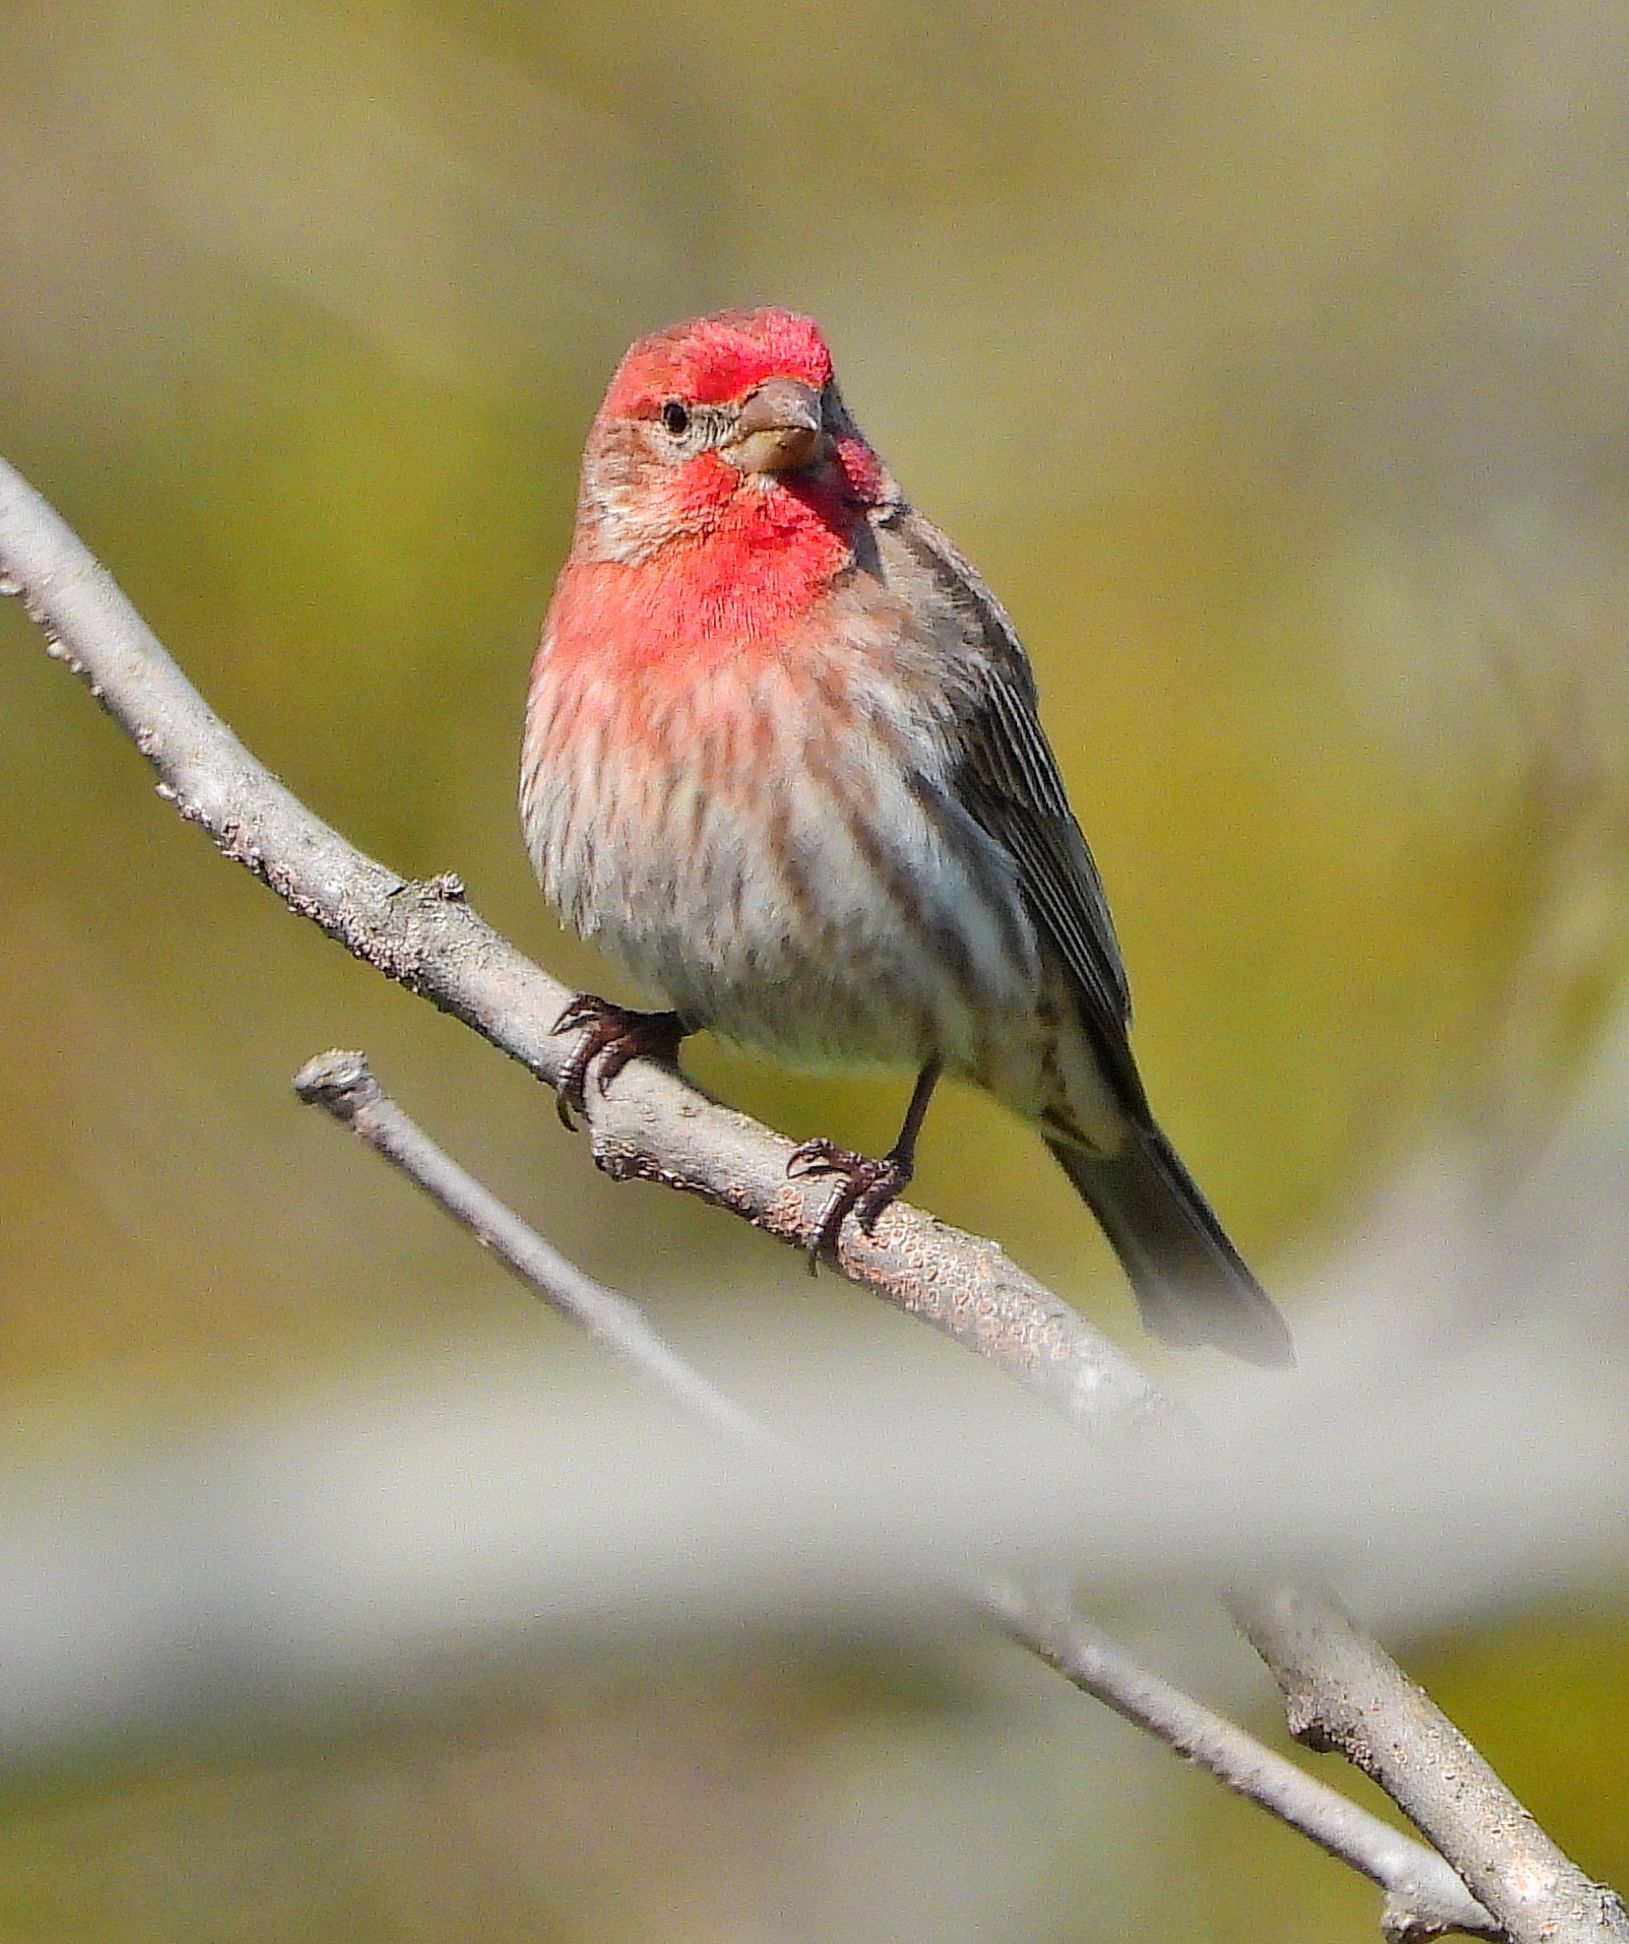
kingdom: Animalia
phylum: Chordata
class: Aves
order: Passeriformes
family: Fringillidae
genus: Haemorhous
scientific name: Haemorhous mexicanus
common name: House finch
